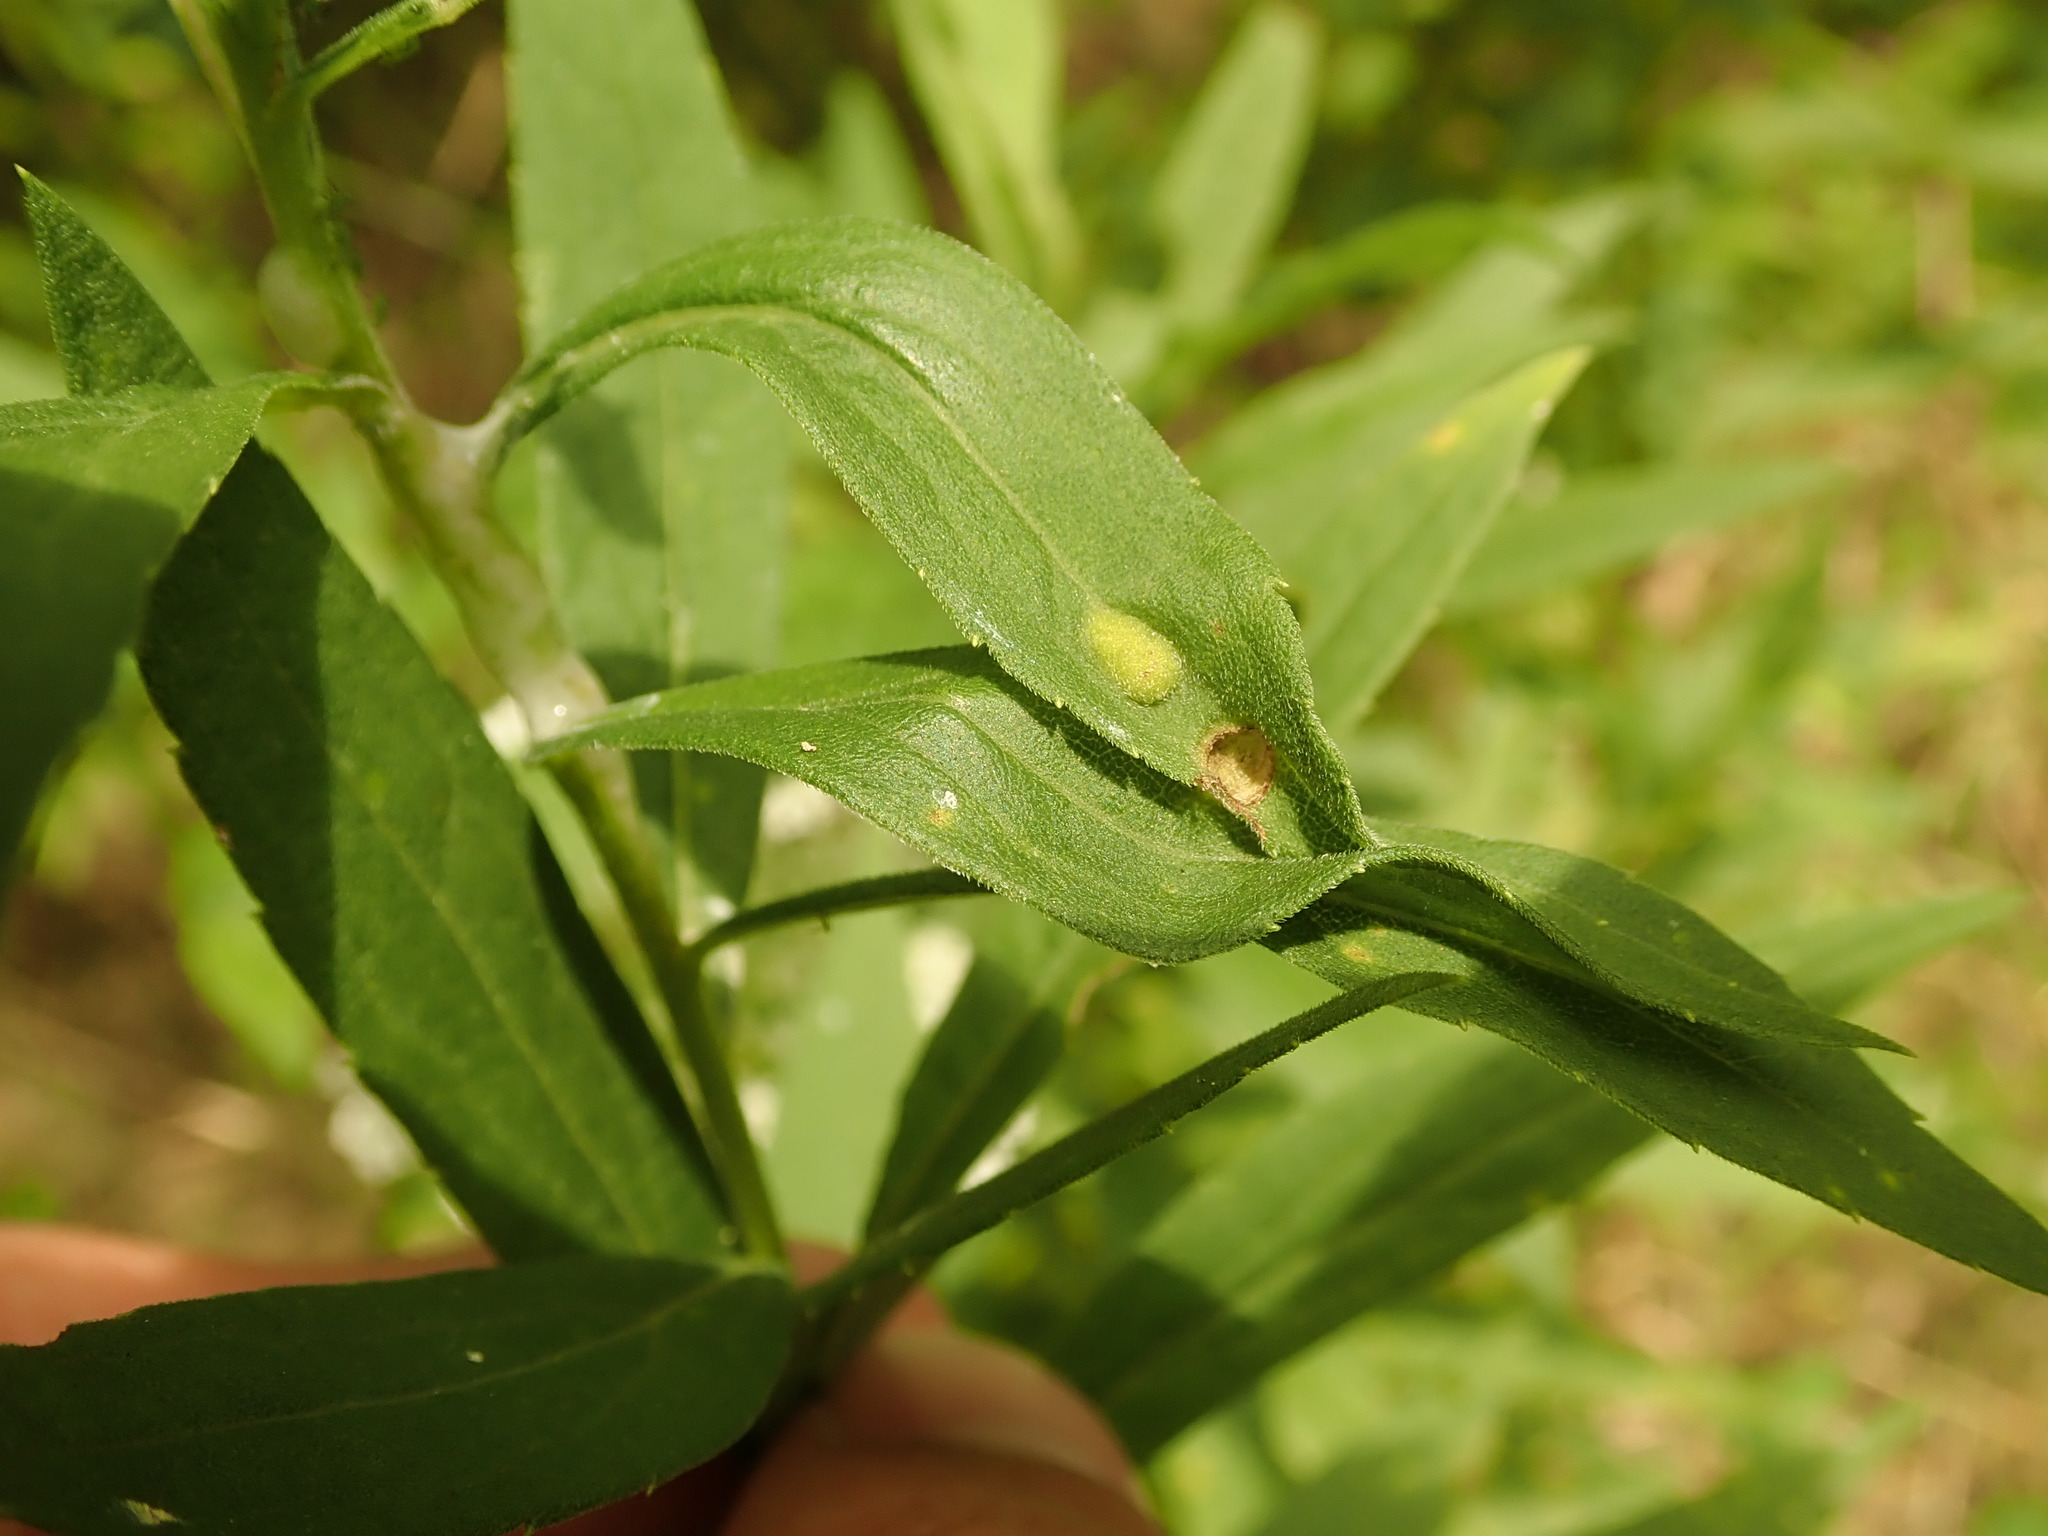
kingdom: Animalia
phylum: Arthropoda
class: Insecta
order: Diptera
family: Cecidomyiidae
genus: Asphondylia
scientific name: Asphondylia solidaginis
